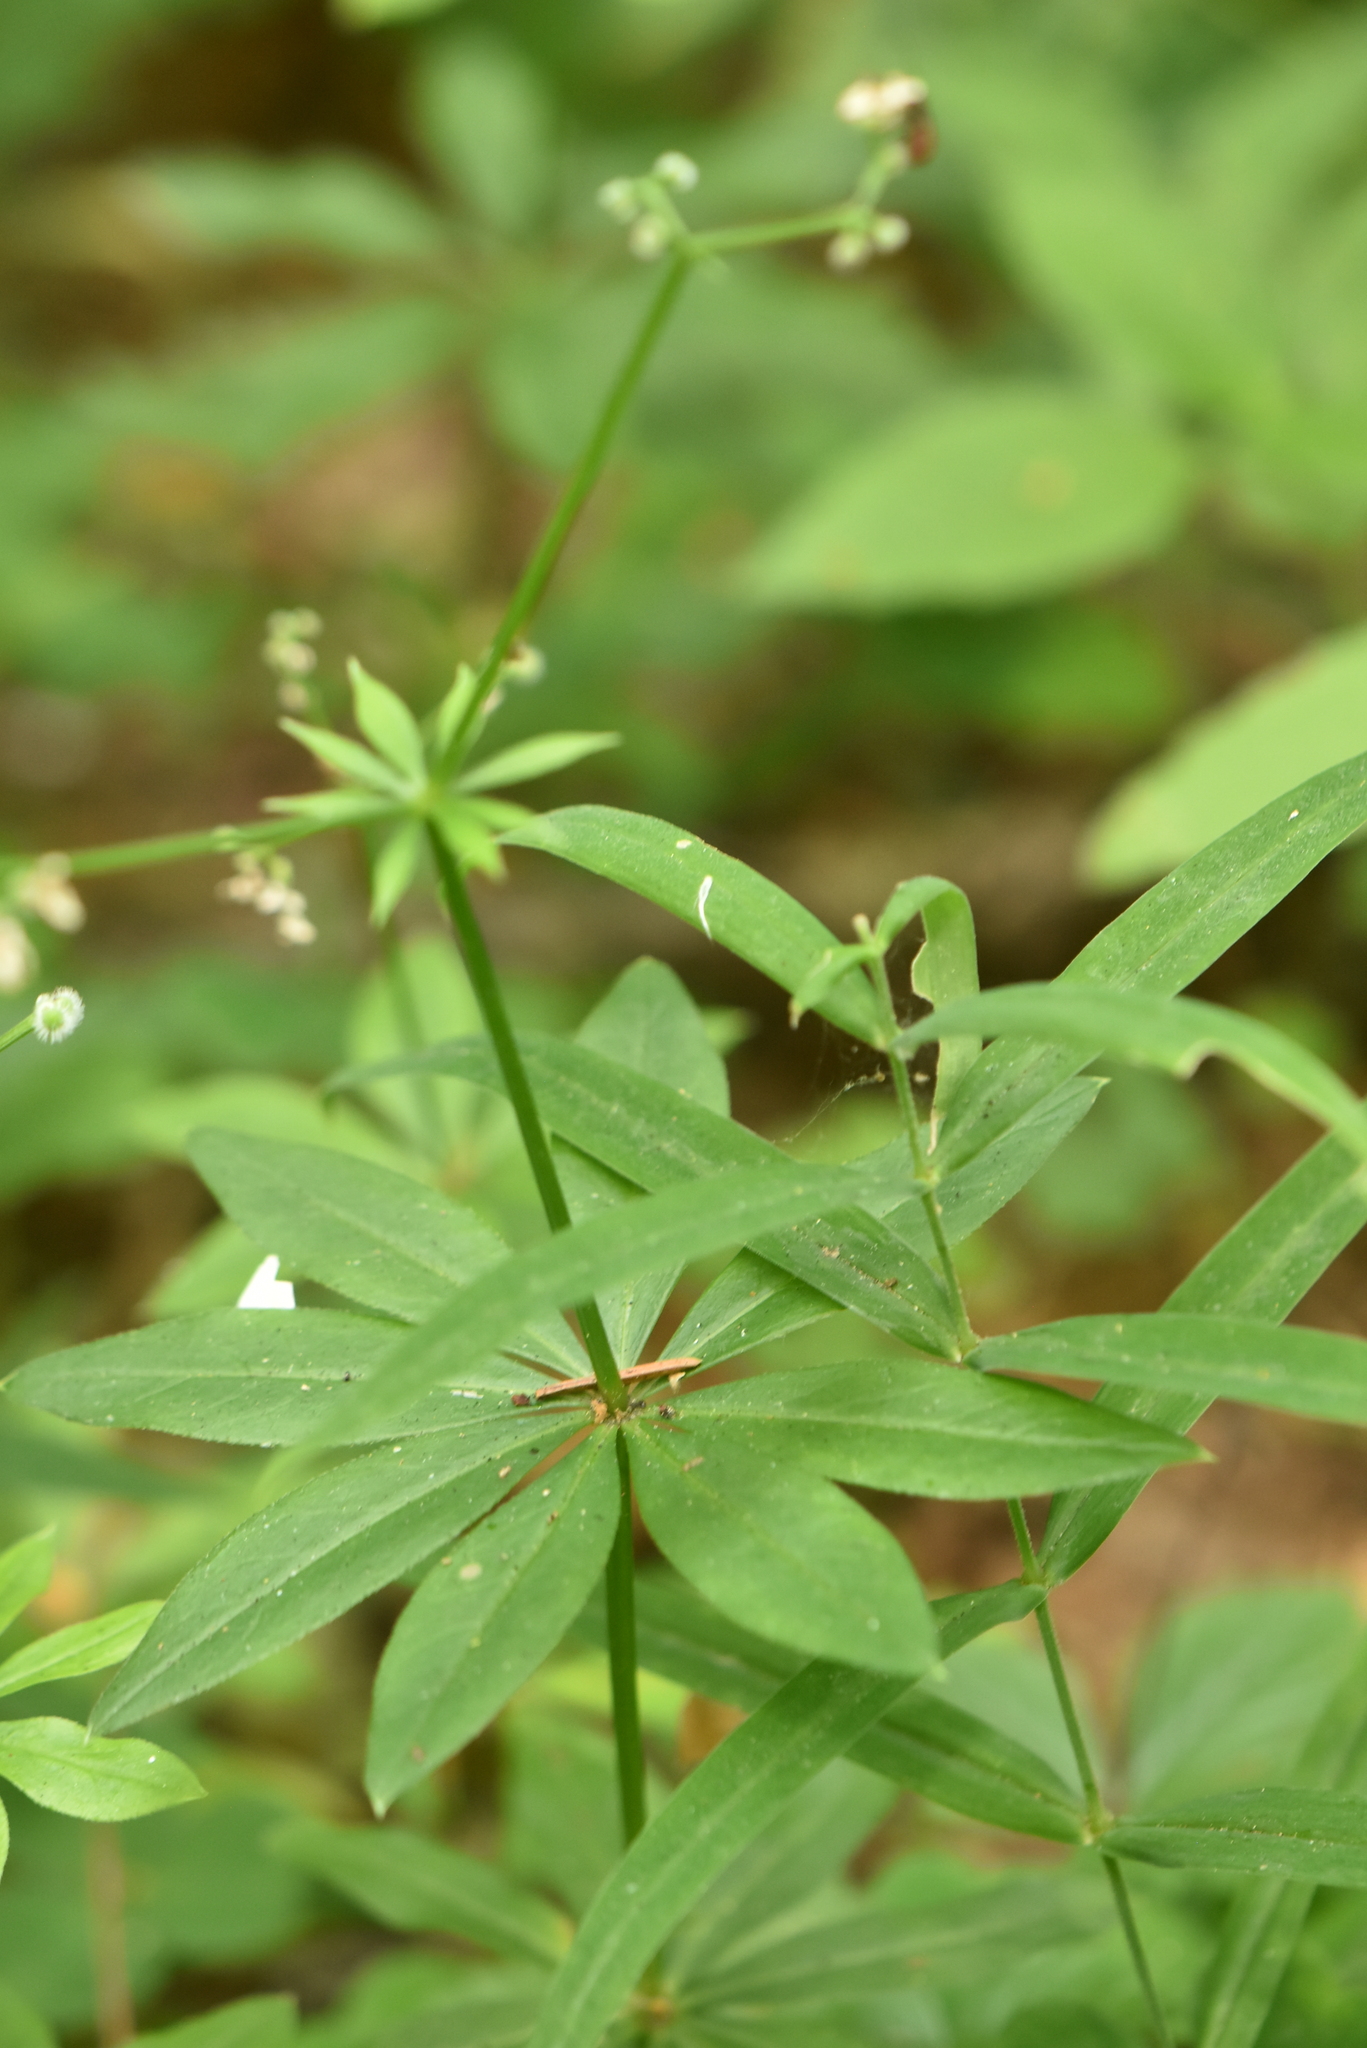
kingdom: Plantae
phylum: Tracheophyta
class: Magnoliopsida
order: Gentianales
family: Rubiaceae
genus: Galium
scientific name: Galium odoratum
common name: Sweet woodruff
